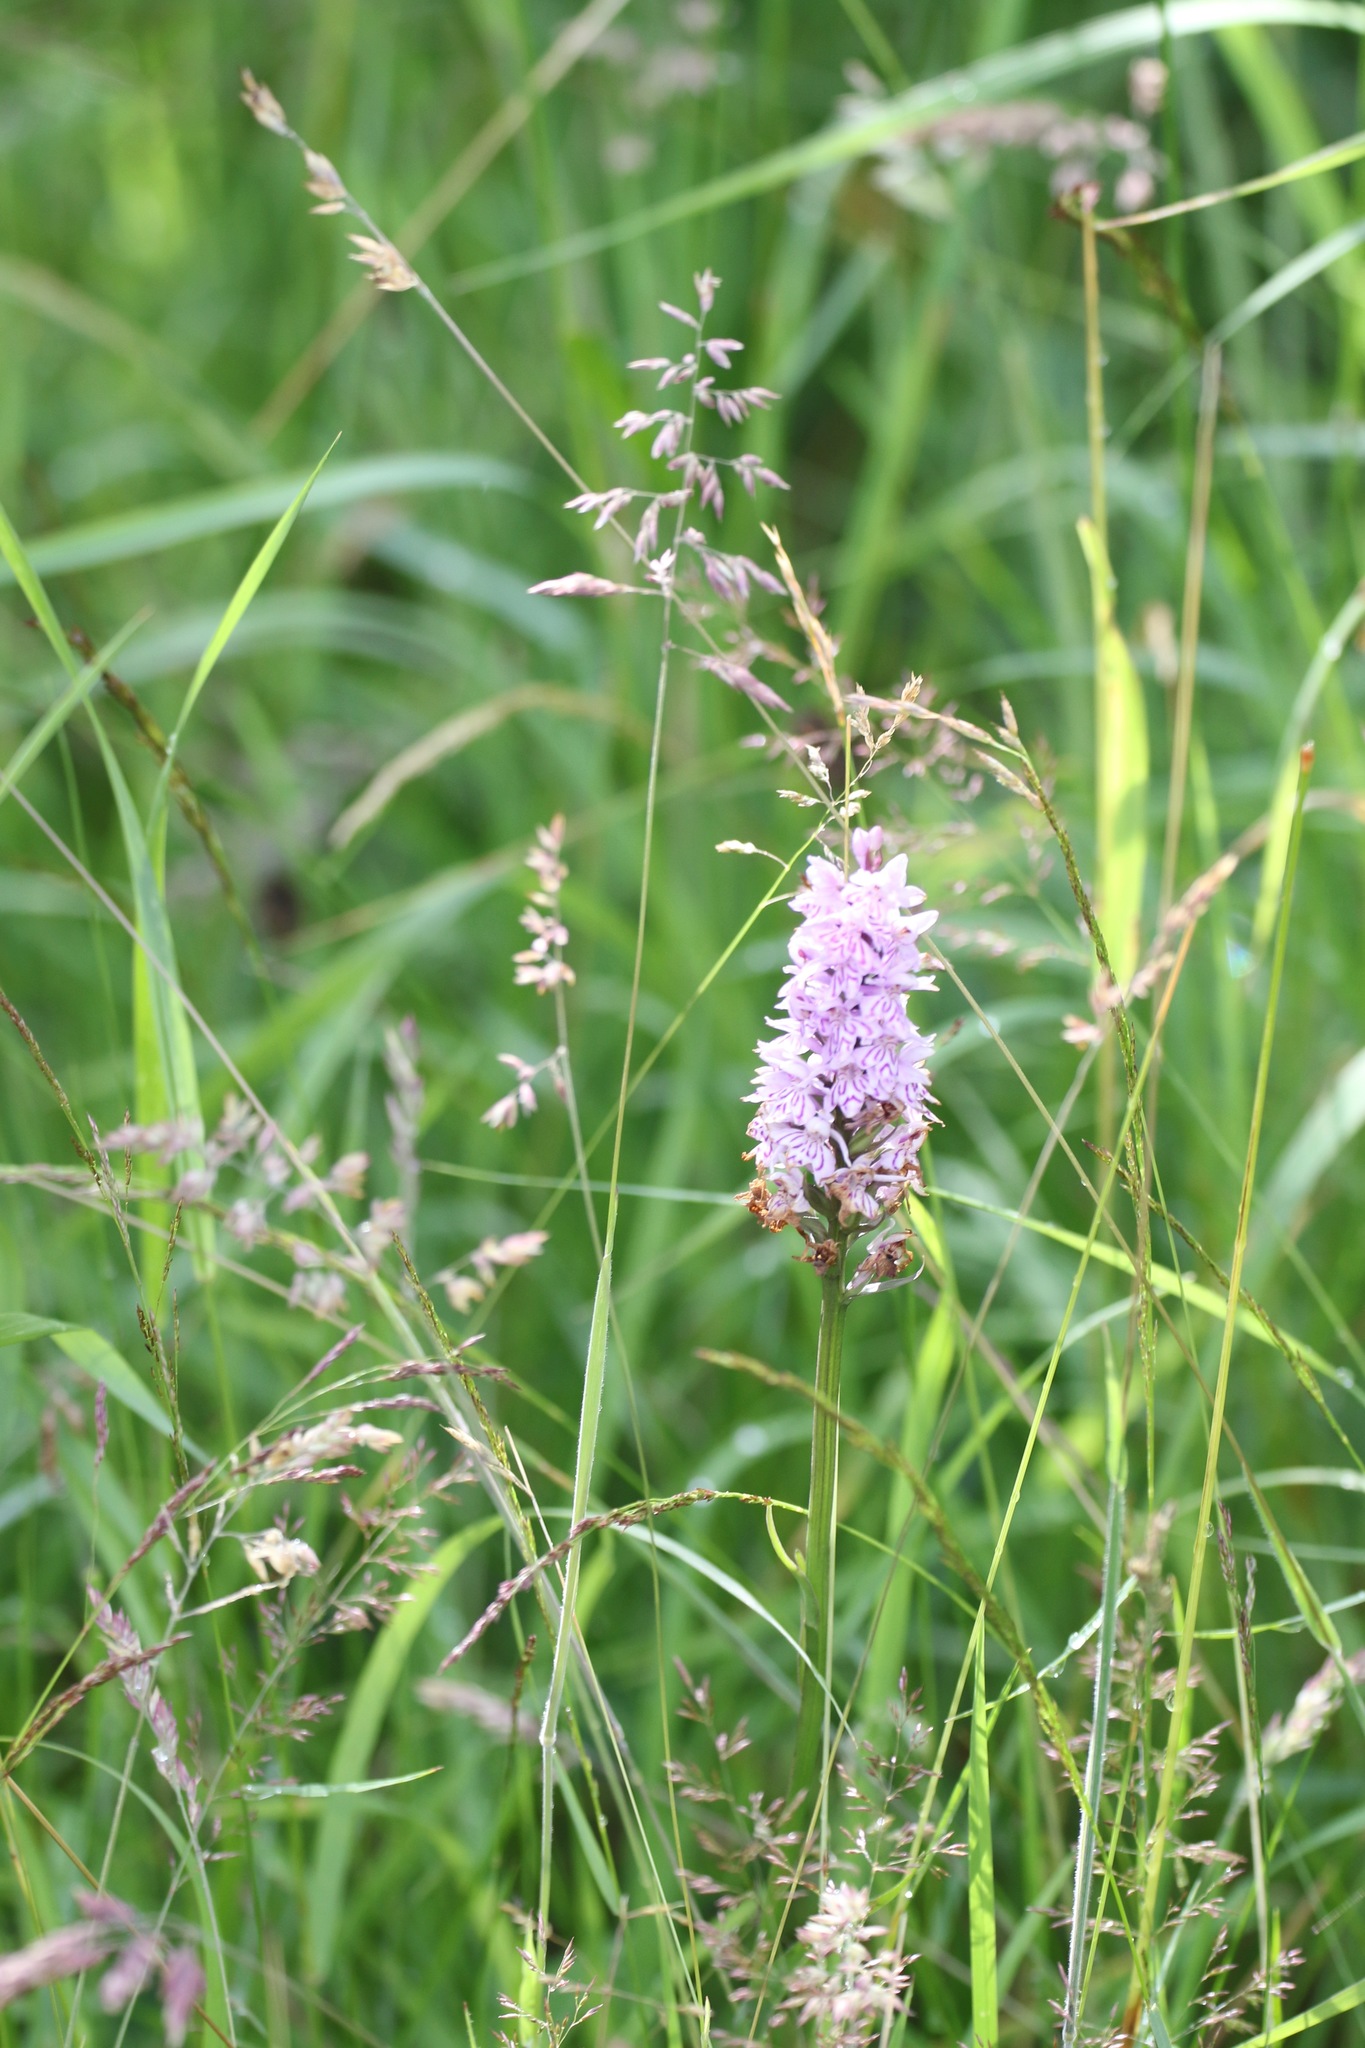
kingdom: Plantae
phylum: Tracheophyta
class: Liliopsida
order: Asparagales
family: Orchidaceae
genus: Dactylorhiza
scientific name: Dactylorhiza maculata
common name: Heath spotted-orchid
